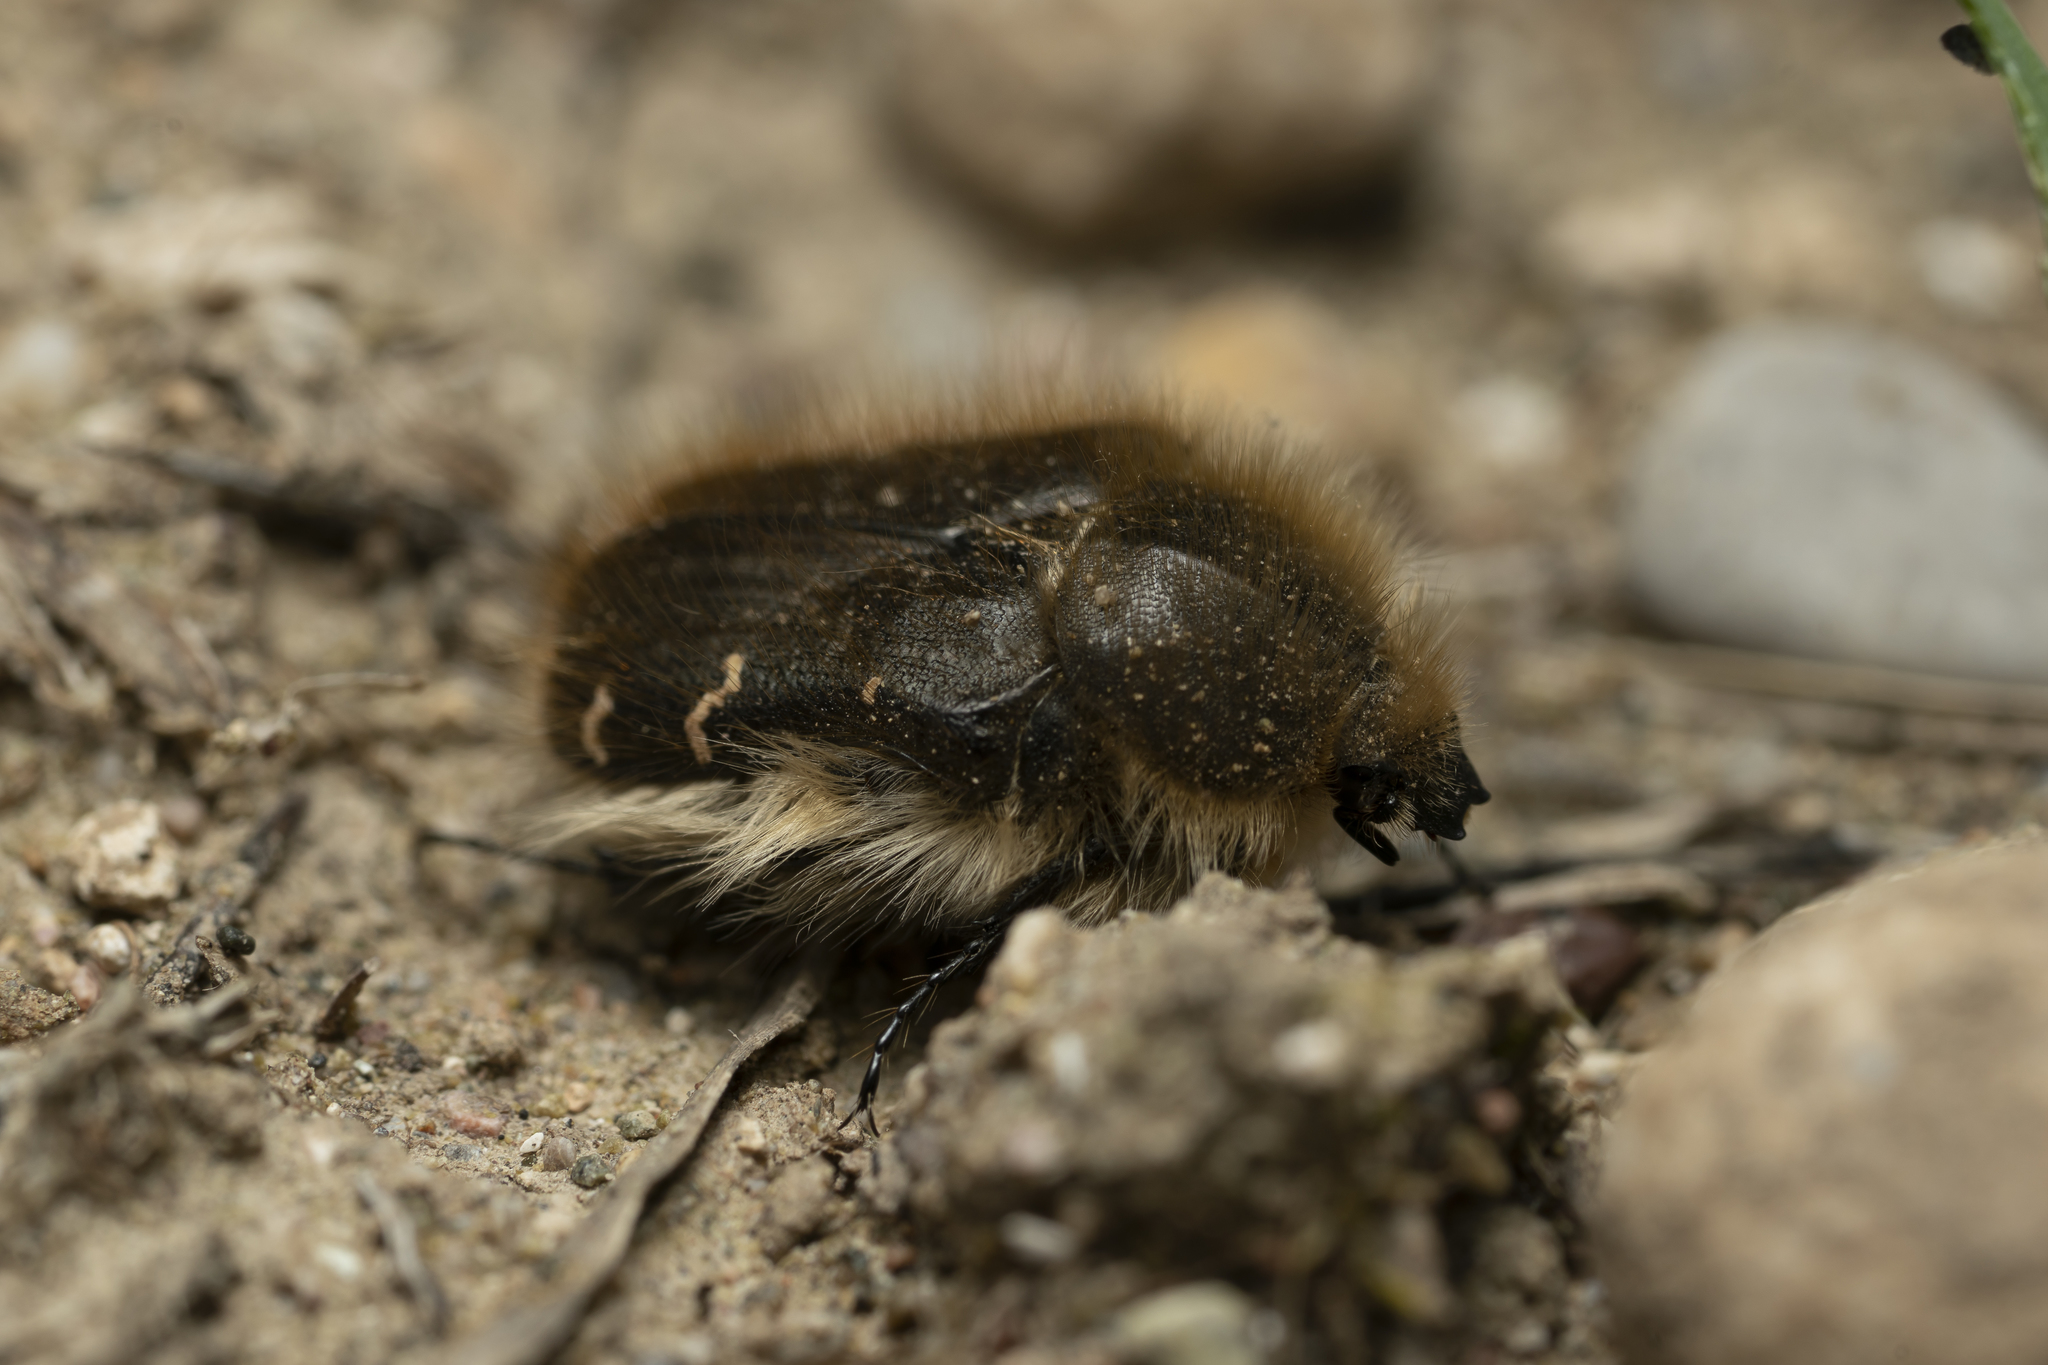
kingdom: Animalia
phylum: Arthropoda
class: Insecta
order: Coleoptera
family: Scarabaeidae
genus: Tropinota
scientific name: Tropinota hirta
